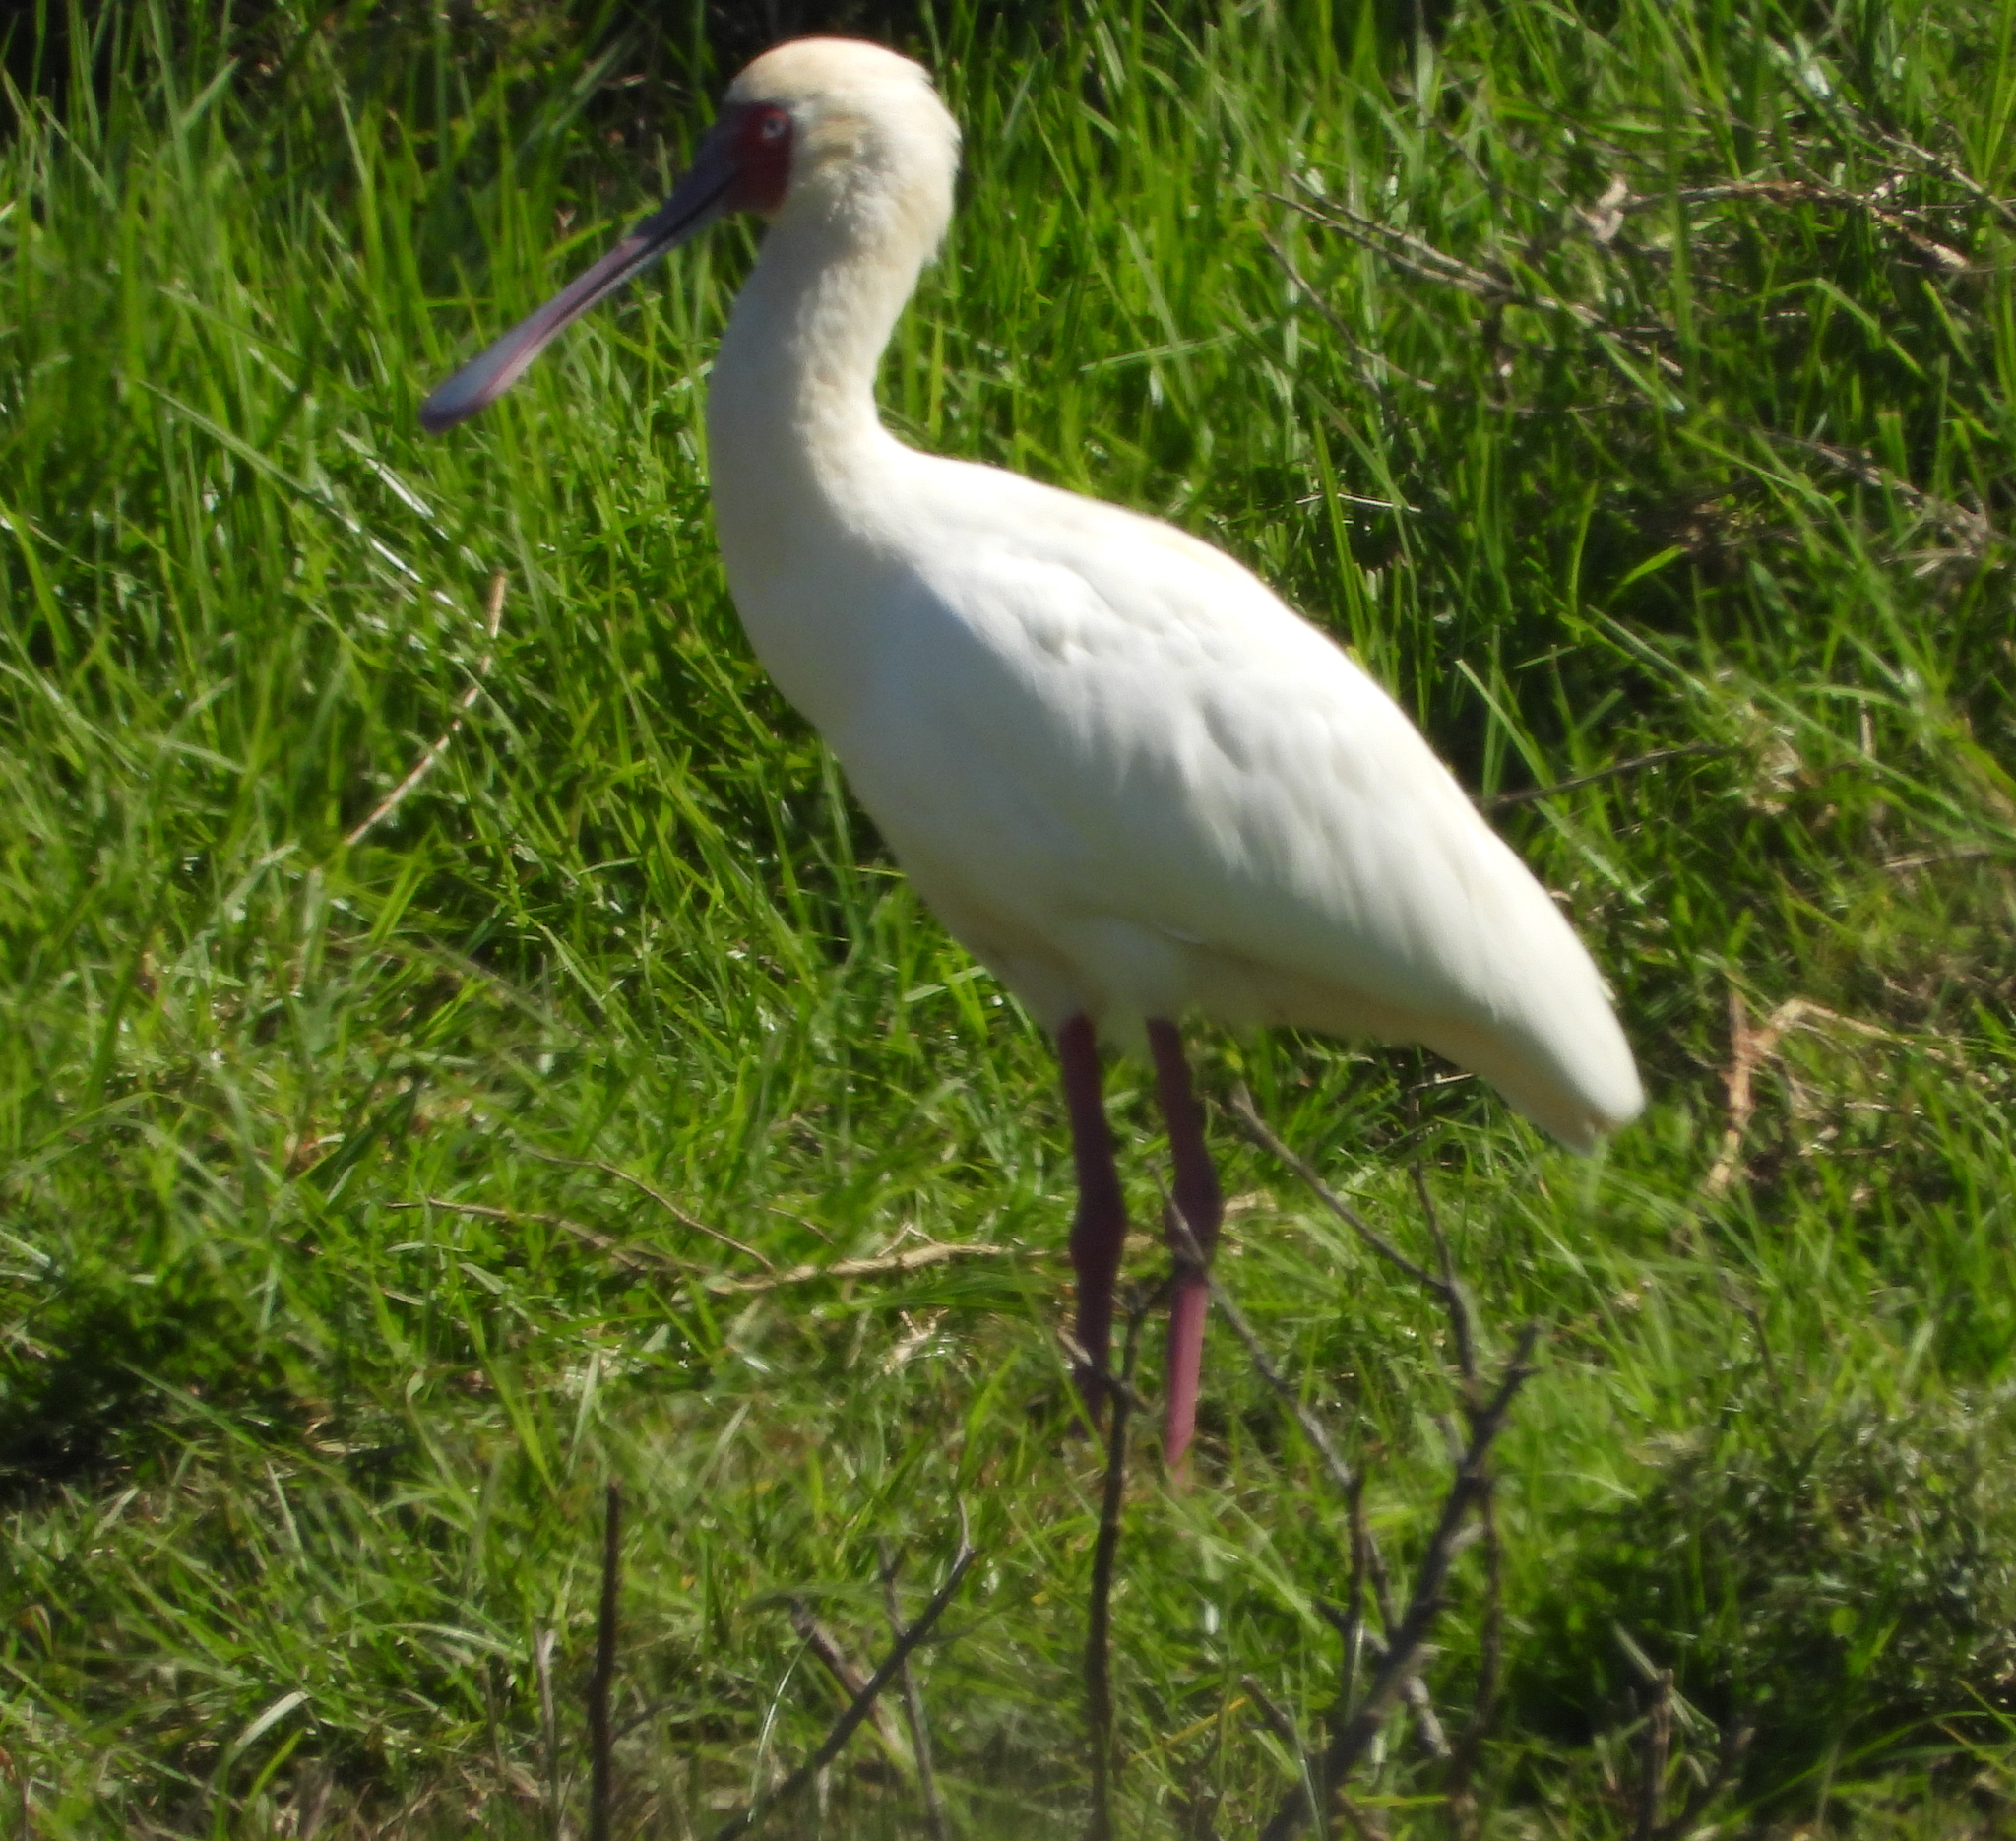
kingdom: Animalia
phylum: Chordata
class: Aves
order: Pelecaniformes
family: Threskiornithidae
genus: Platalea
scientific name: Platalea alba
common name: African spoonbill
